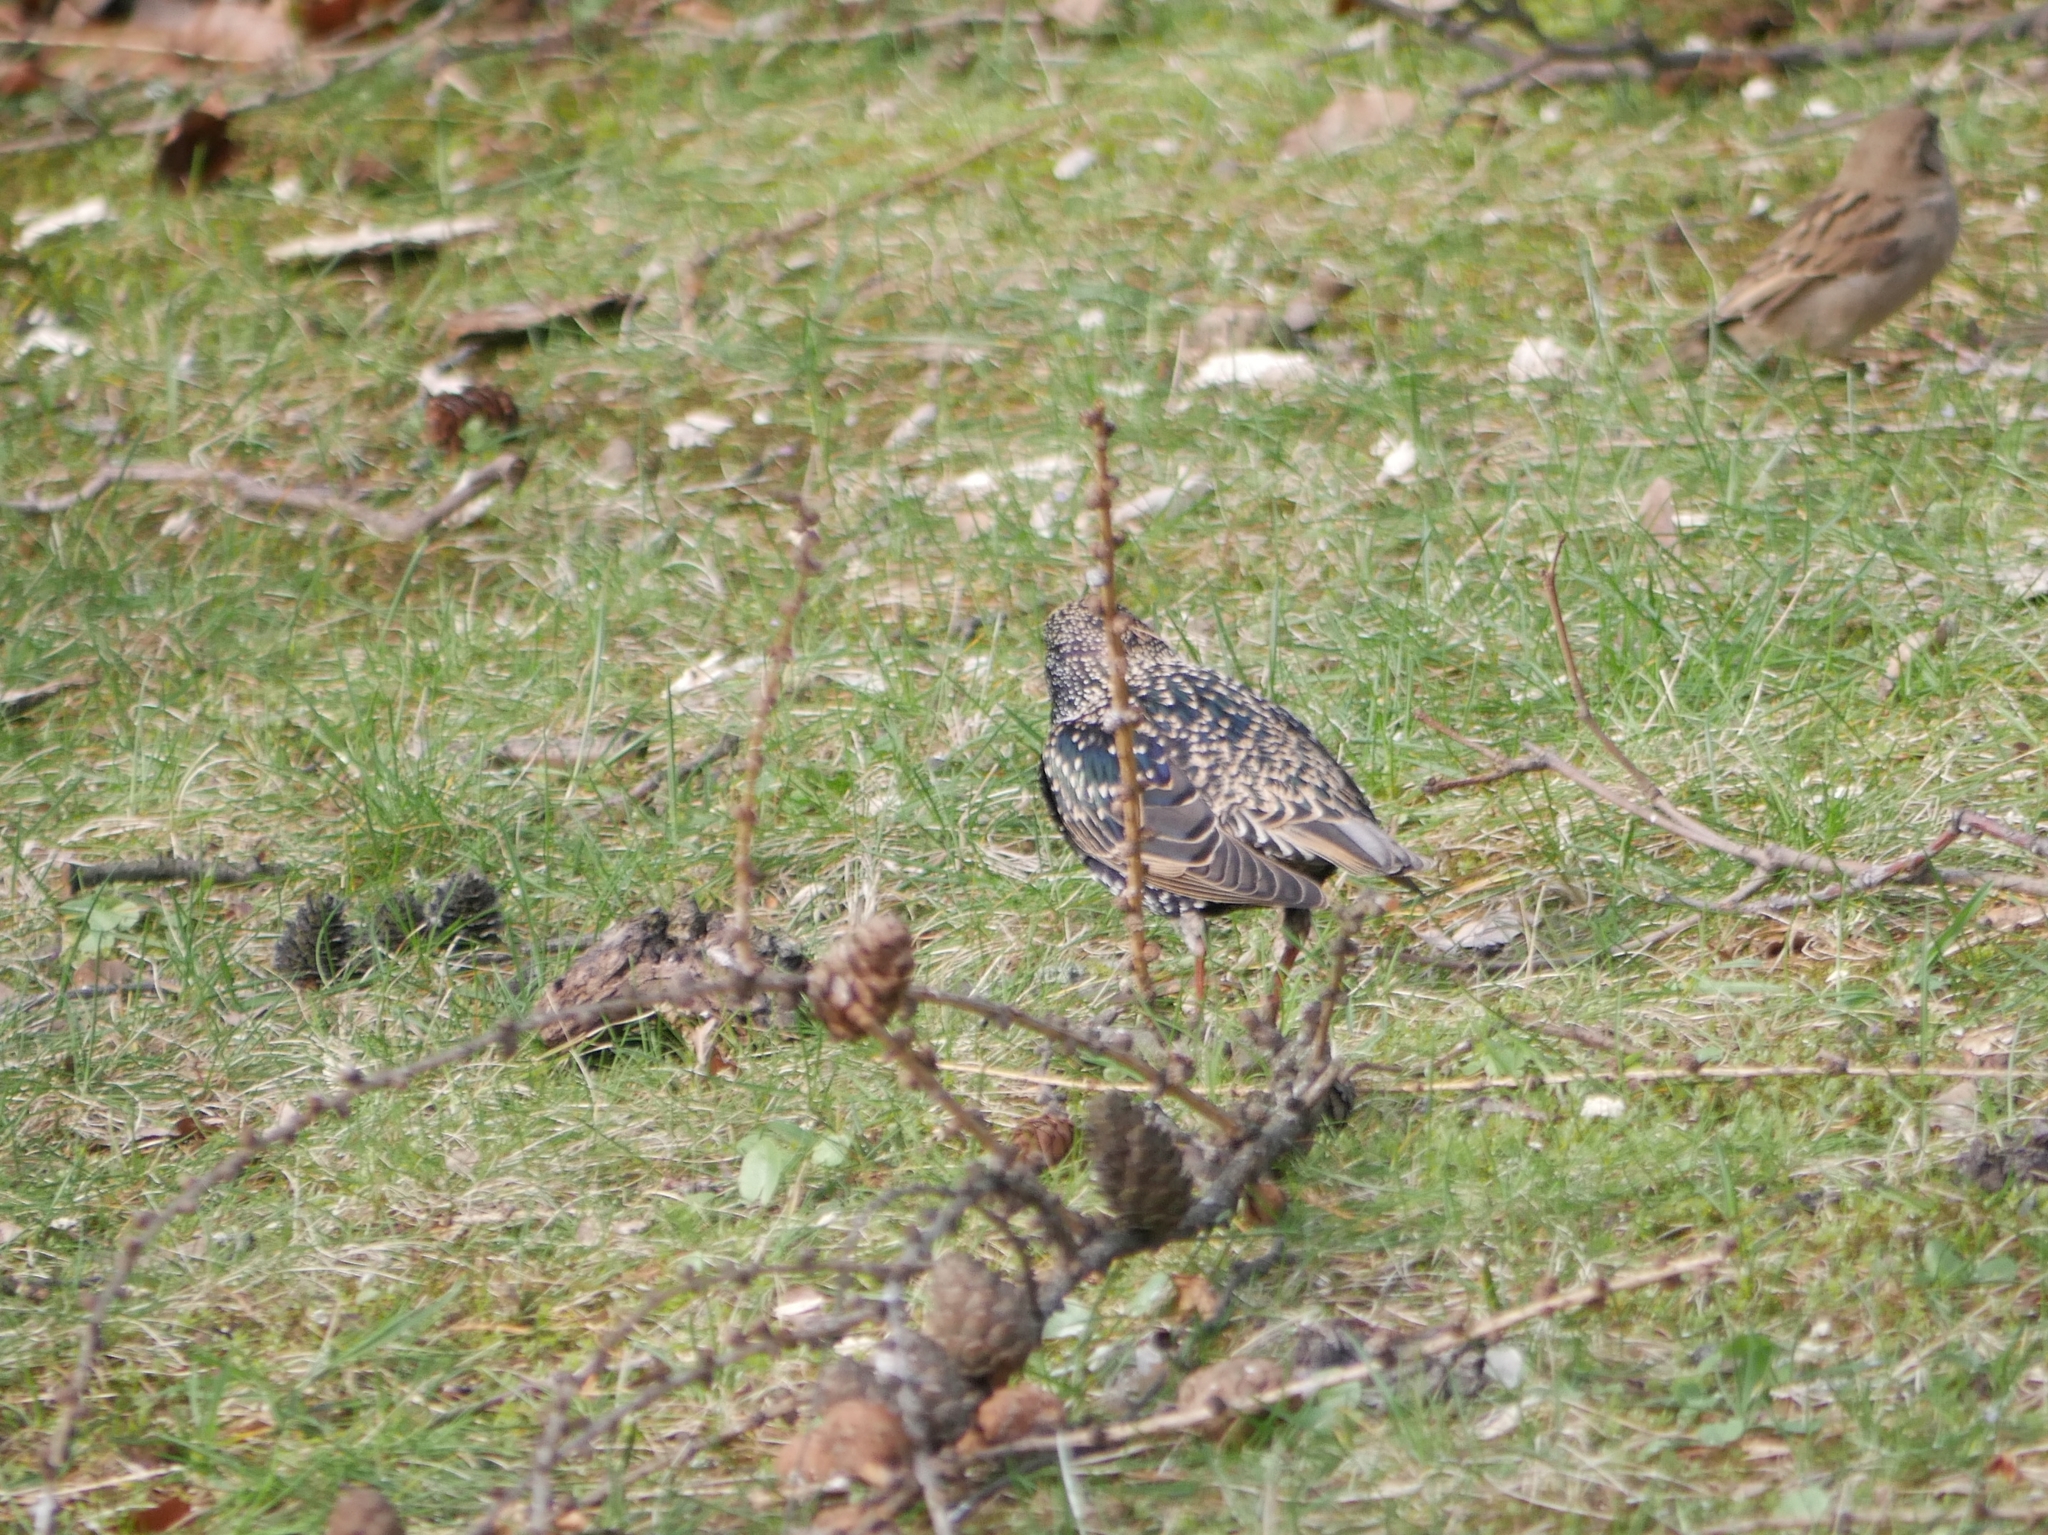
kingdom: Animalia
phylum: Chordata
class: Aves
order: Passeriformes
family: Sturnidae
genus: Sturnus
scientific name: Sturnus vulgaris
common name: Common starling
